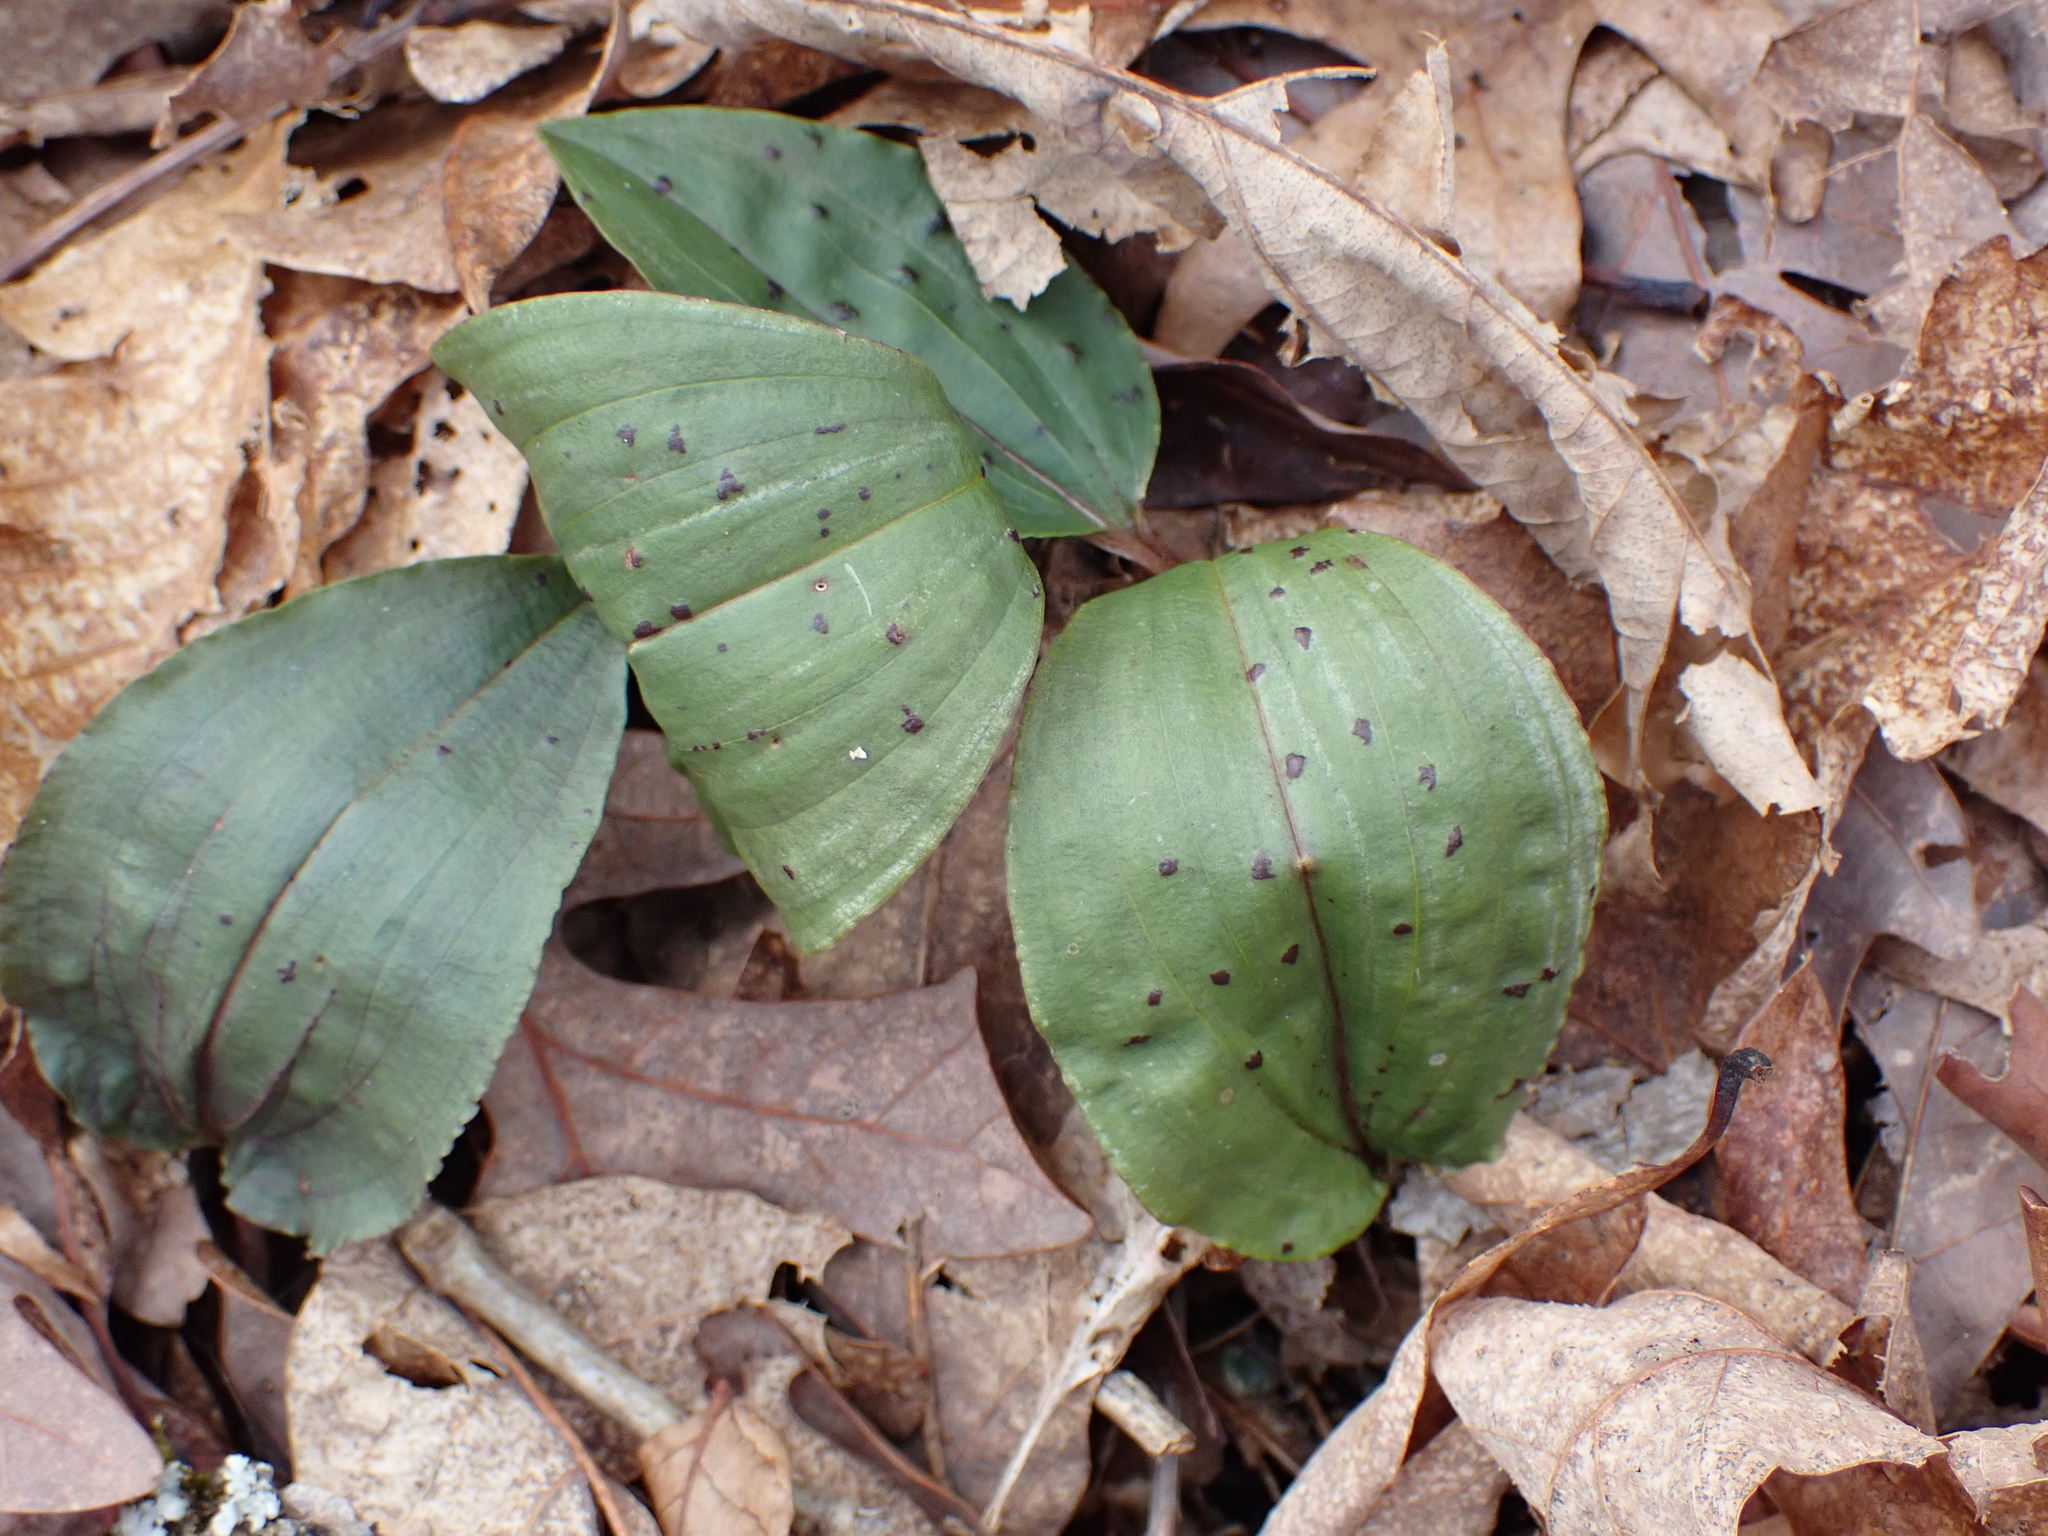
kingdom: Plantae
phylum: Tracheophyta
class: Liliopsida
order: Asparagales
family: Orchidaceae
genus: Tipularia
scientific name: Tipularia discolor
